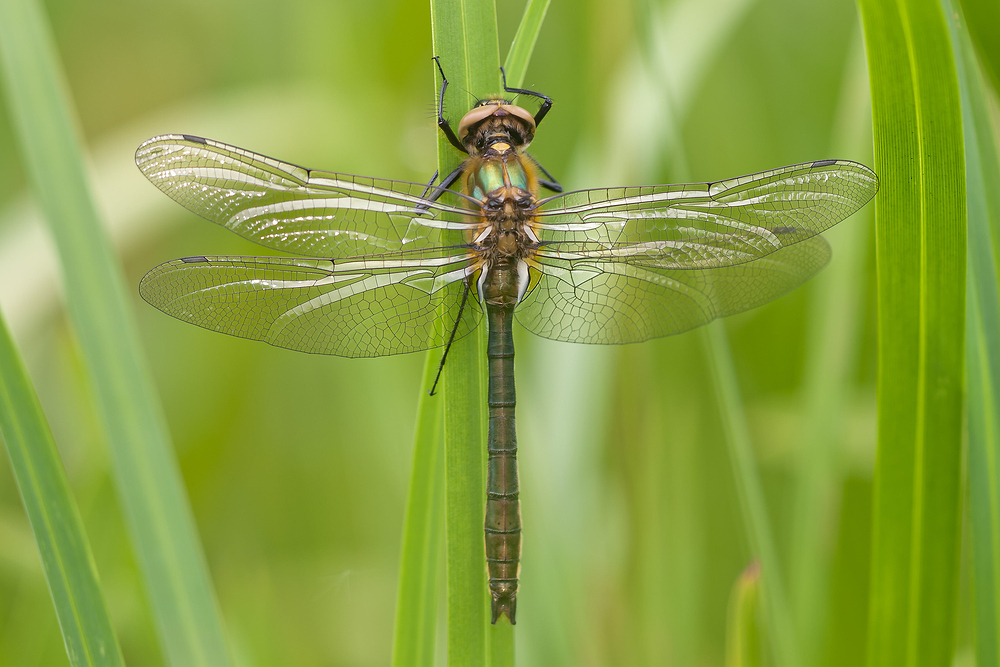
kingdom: Animalia
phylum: Arthropoda
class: Insecta
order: Odonata
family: Corduliidae
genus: Cordulia
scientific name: Cordulia aenea
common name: Downy emerald
